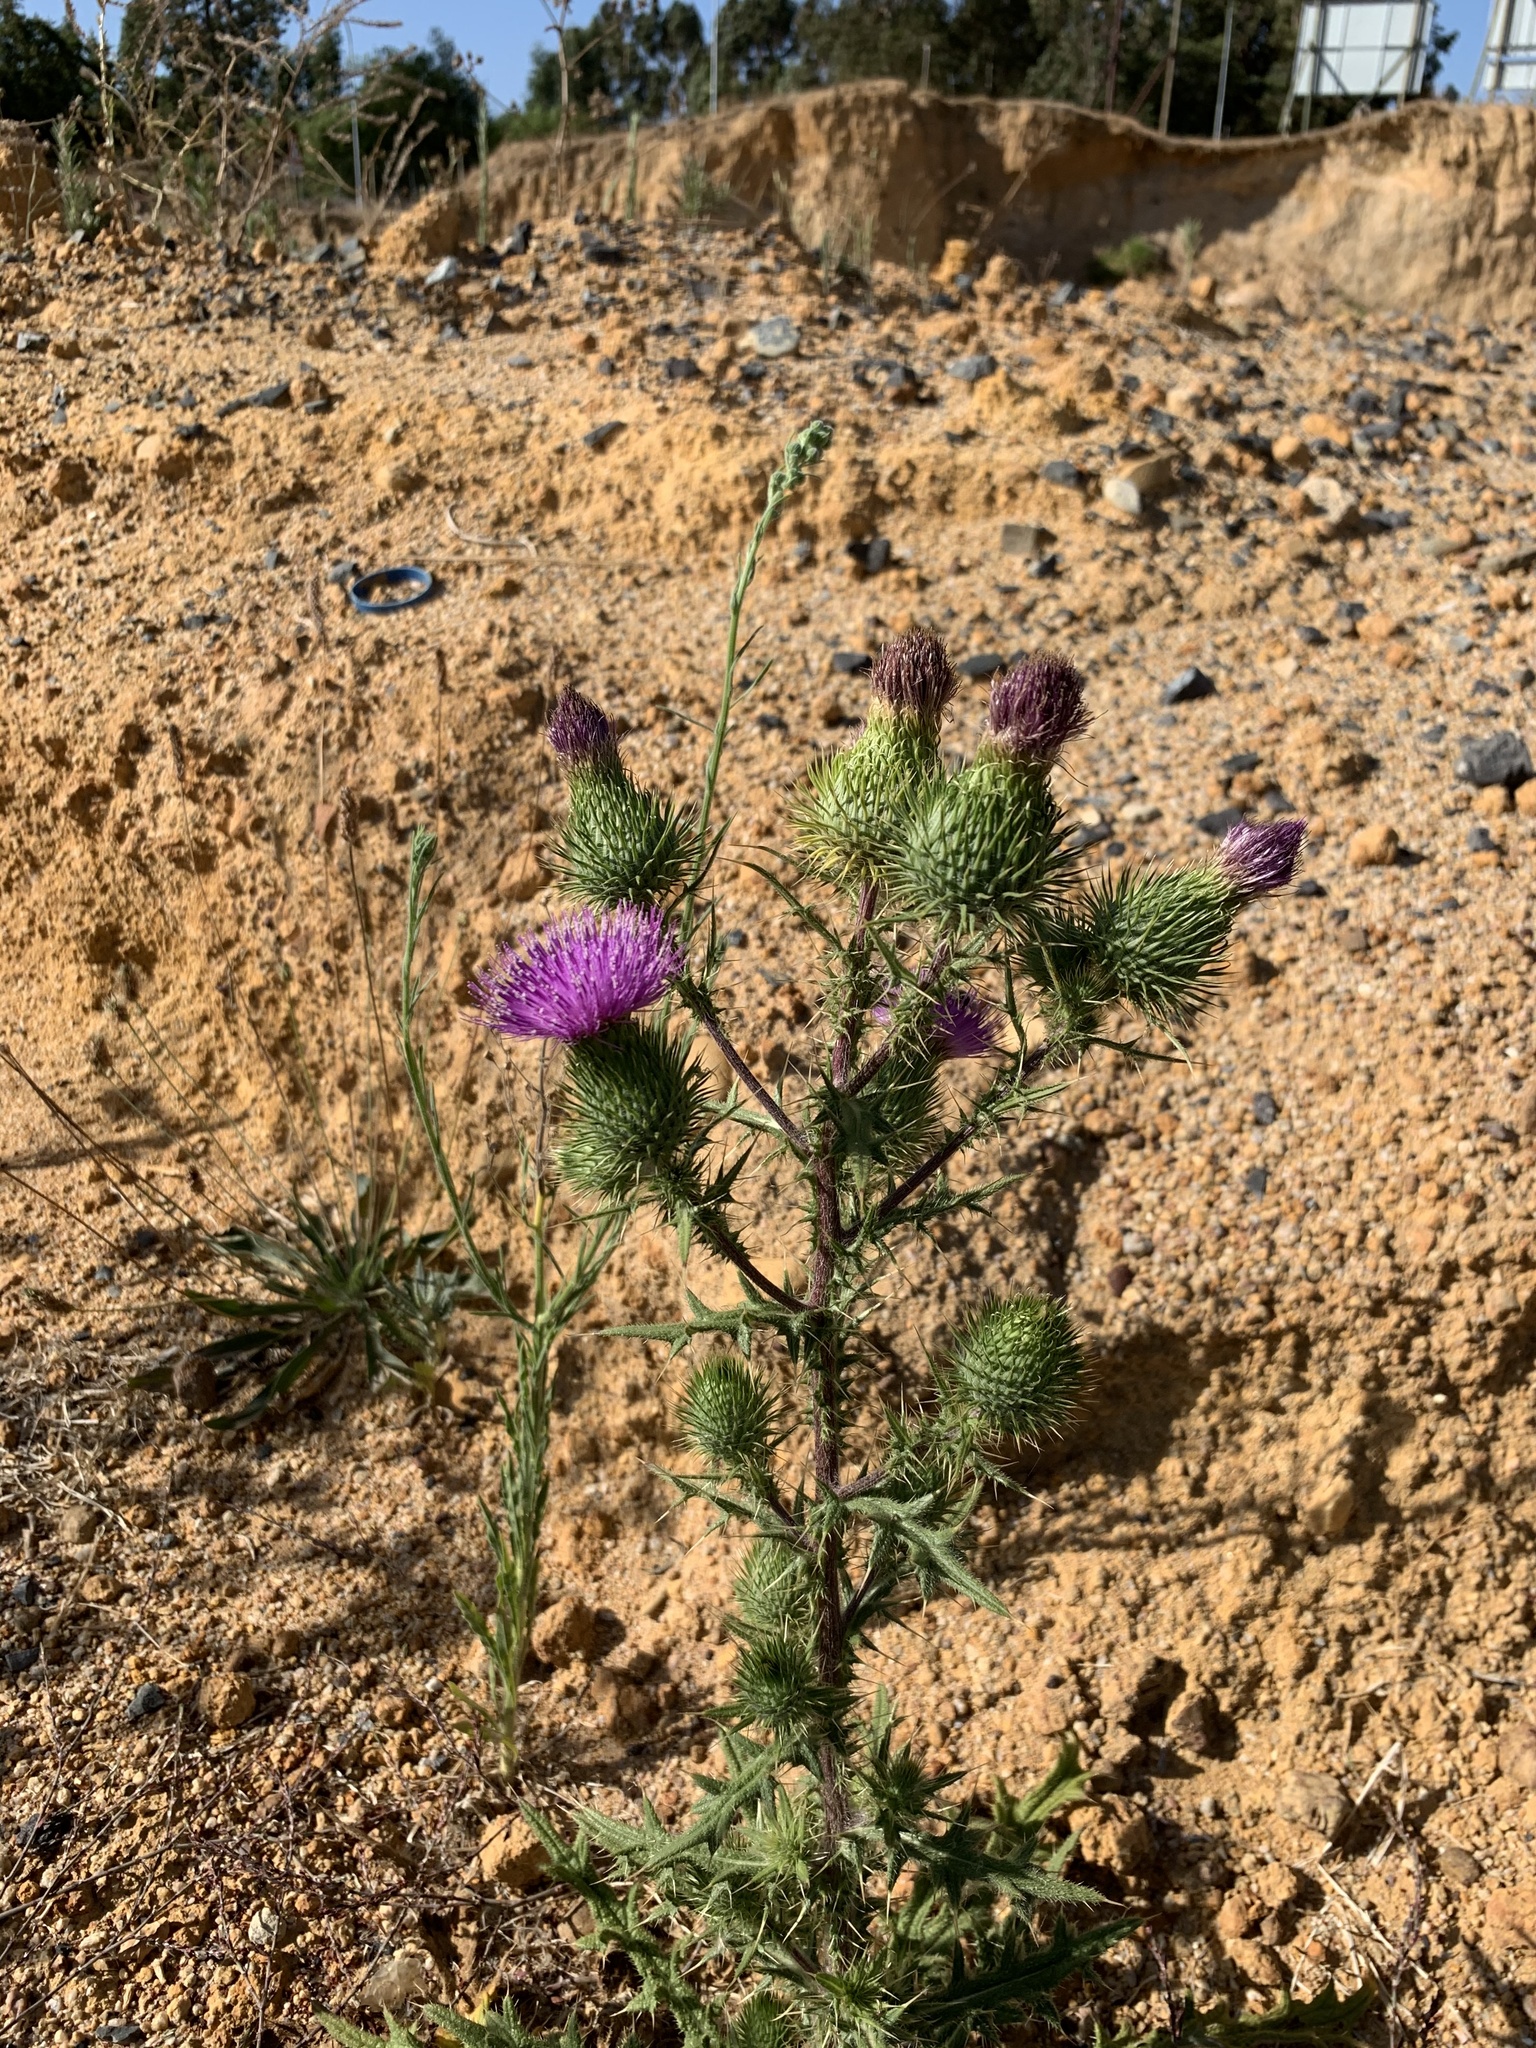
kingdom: Plantae
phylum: Tracheophyta
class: Magnoliopsida
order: Asterales
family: Asteraceae
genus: Cirsium
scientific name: Cirsium vulgare
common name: Bull thistle
